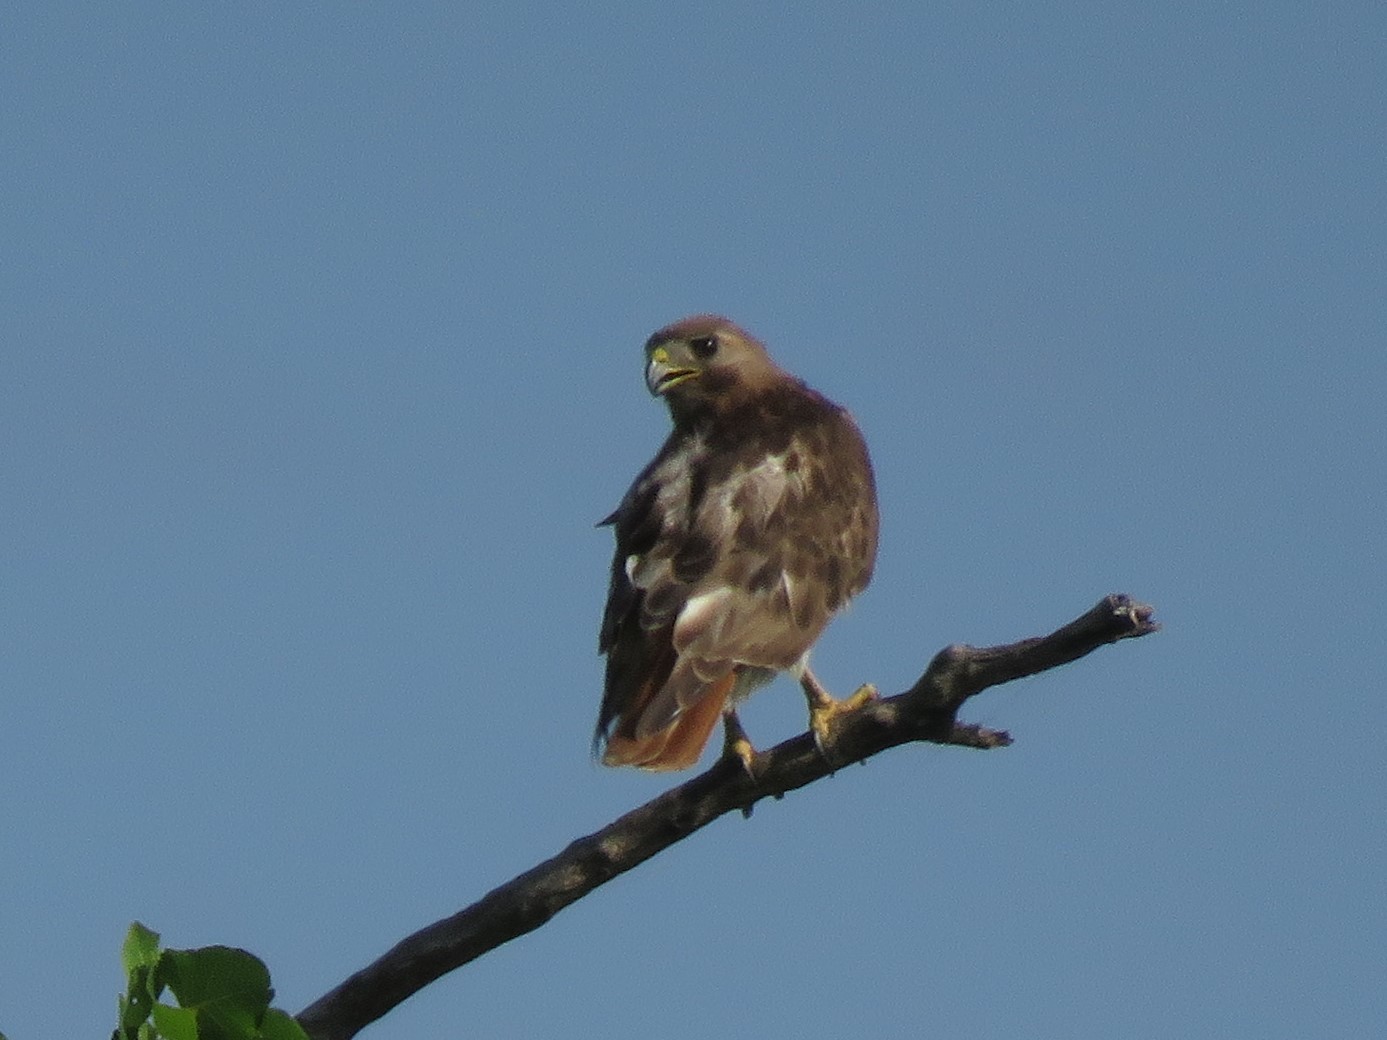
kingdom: Animalia
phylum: Chordata
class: Aves
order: Accipitriformes
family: Accipitridae
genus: Buteo
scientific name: Buteo jamaicensis
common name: Red-tailed hawk
